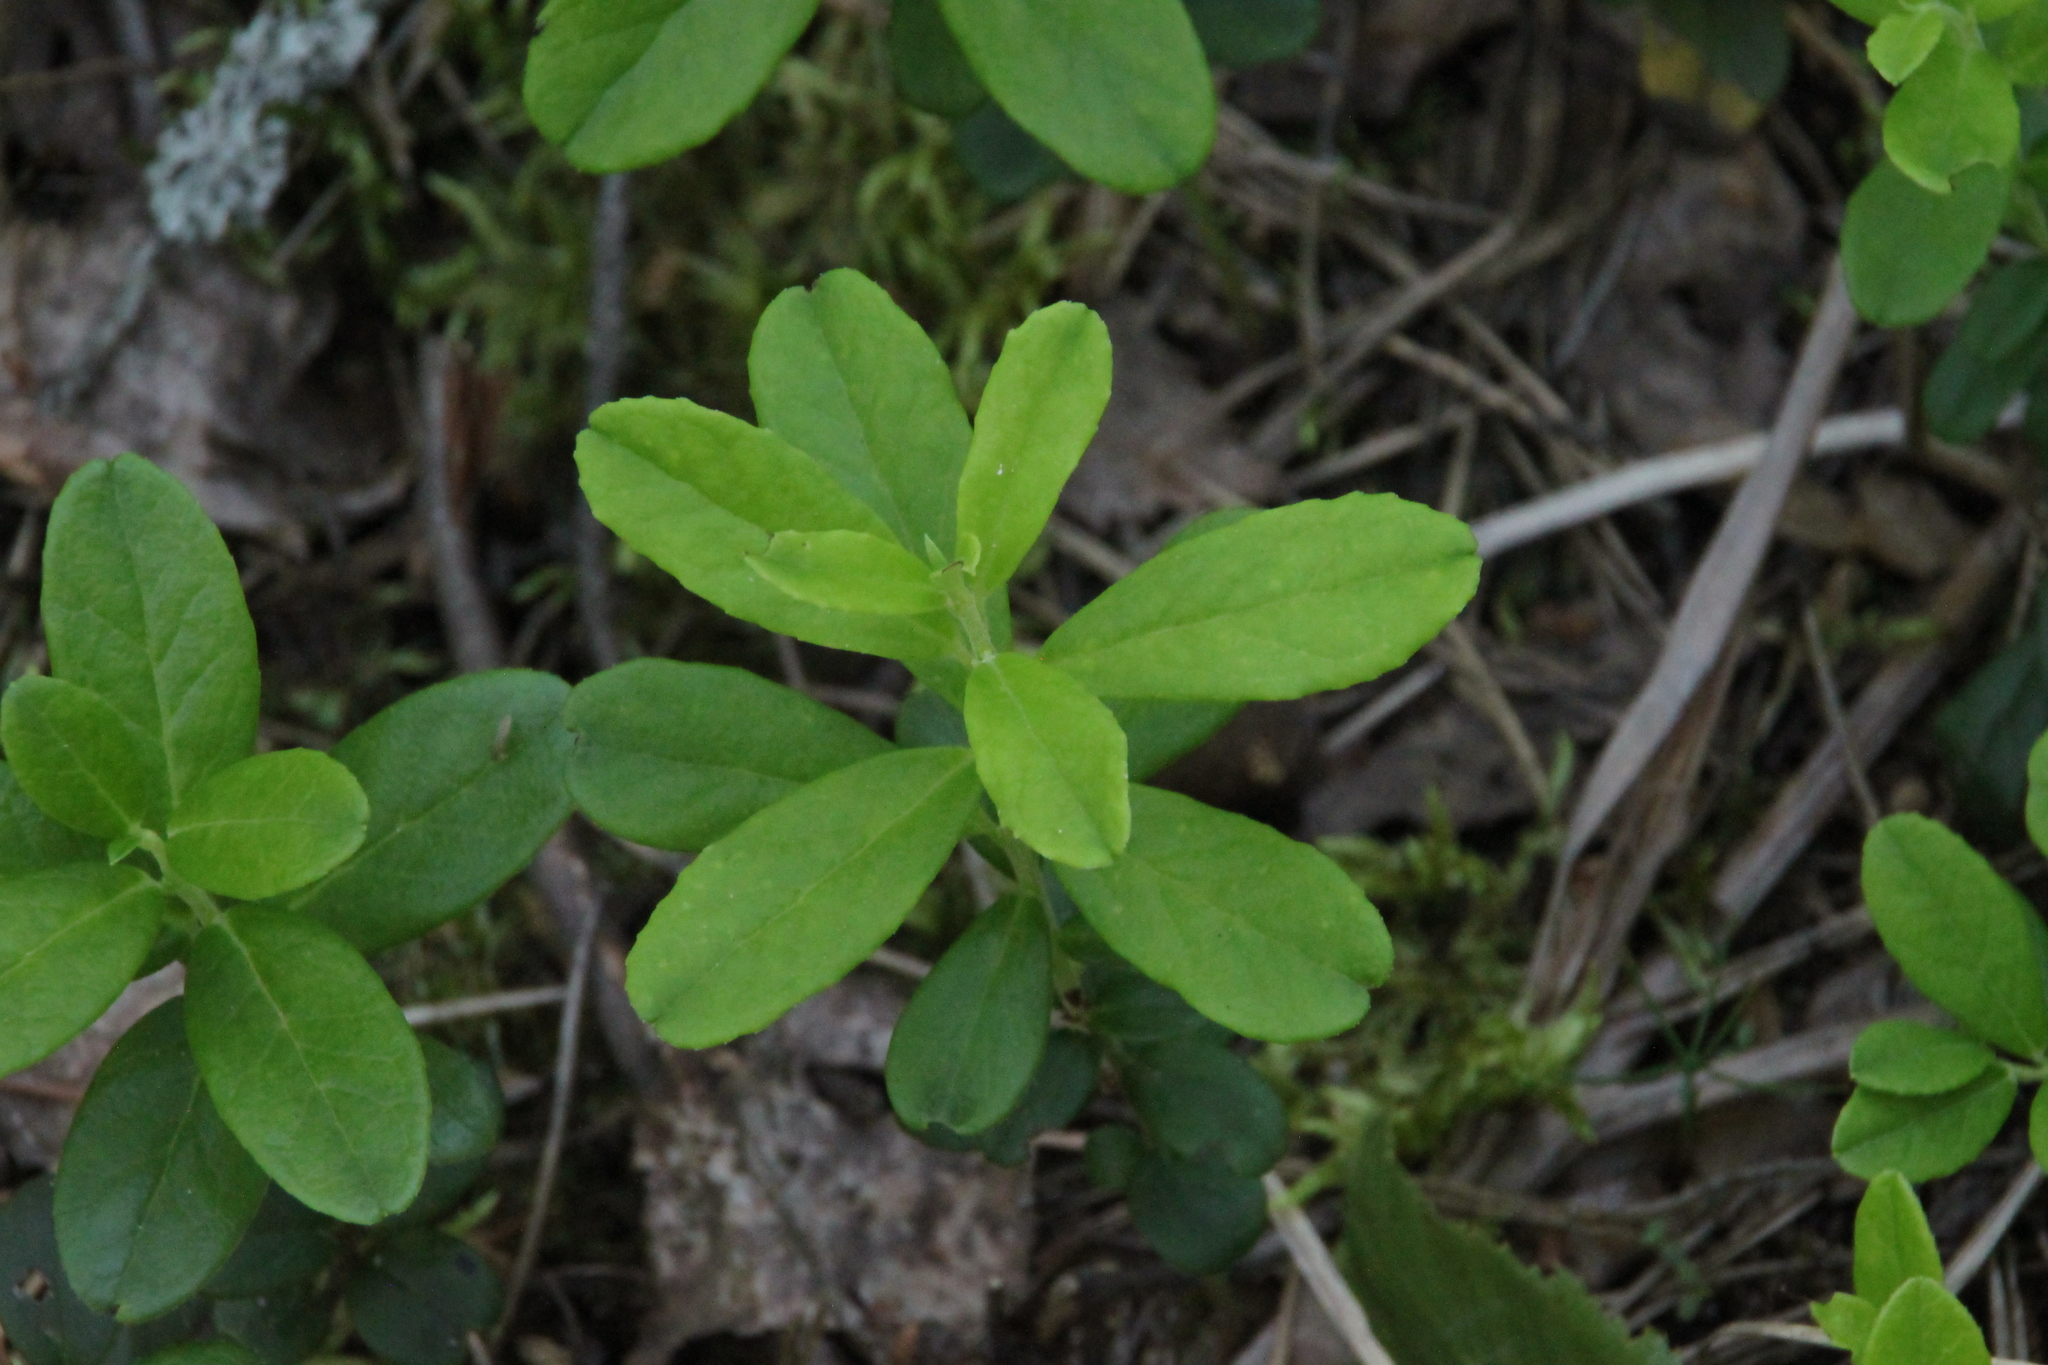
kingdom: Plantae
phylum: Tracheophyta
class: Magnoliopsida
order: Ericales
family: Ericaceae
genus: Vaccinium
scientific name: Vaccinium vitis-idaea
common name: Cowberry
